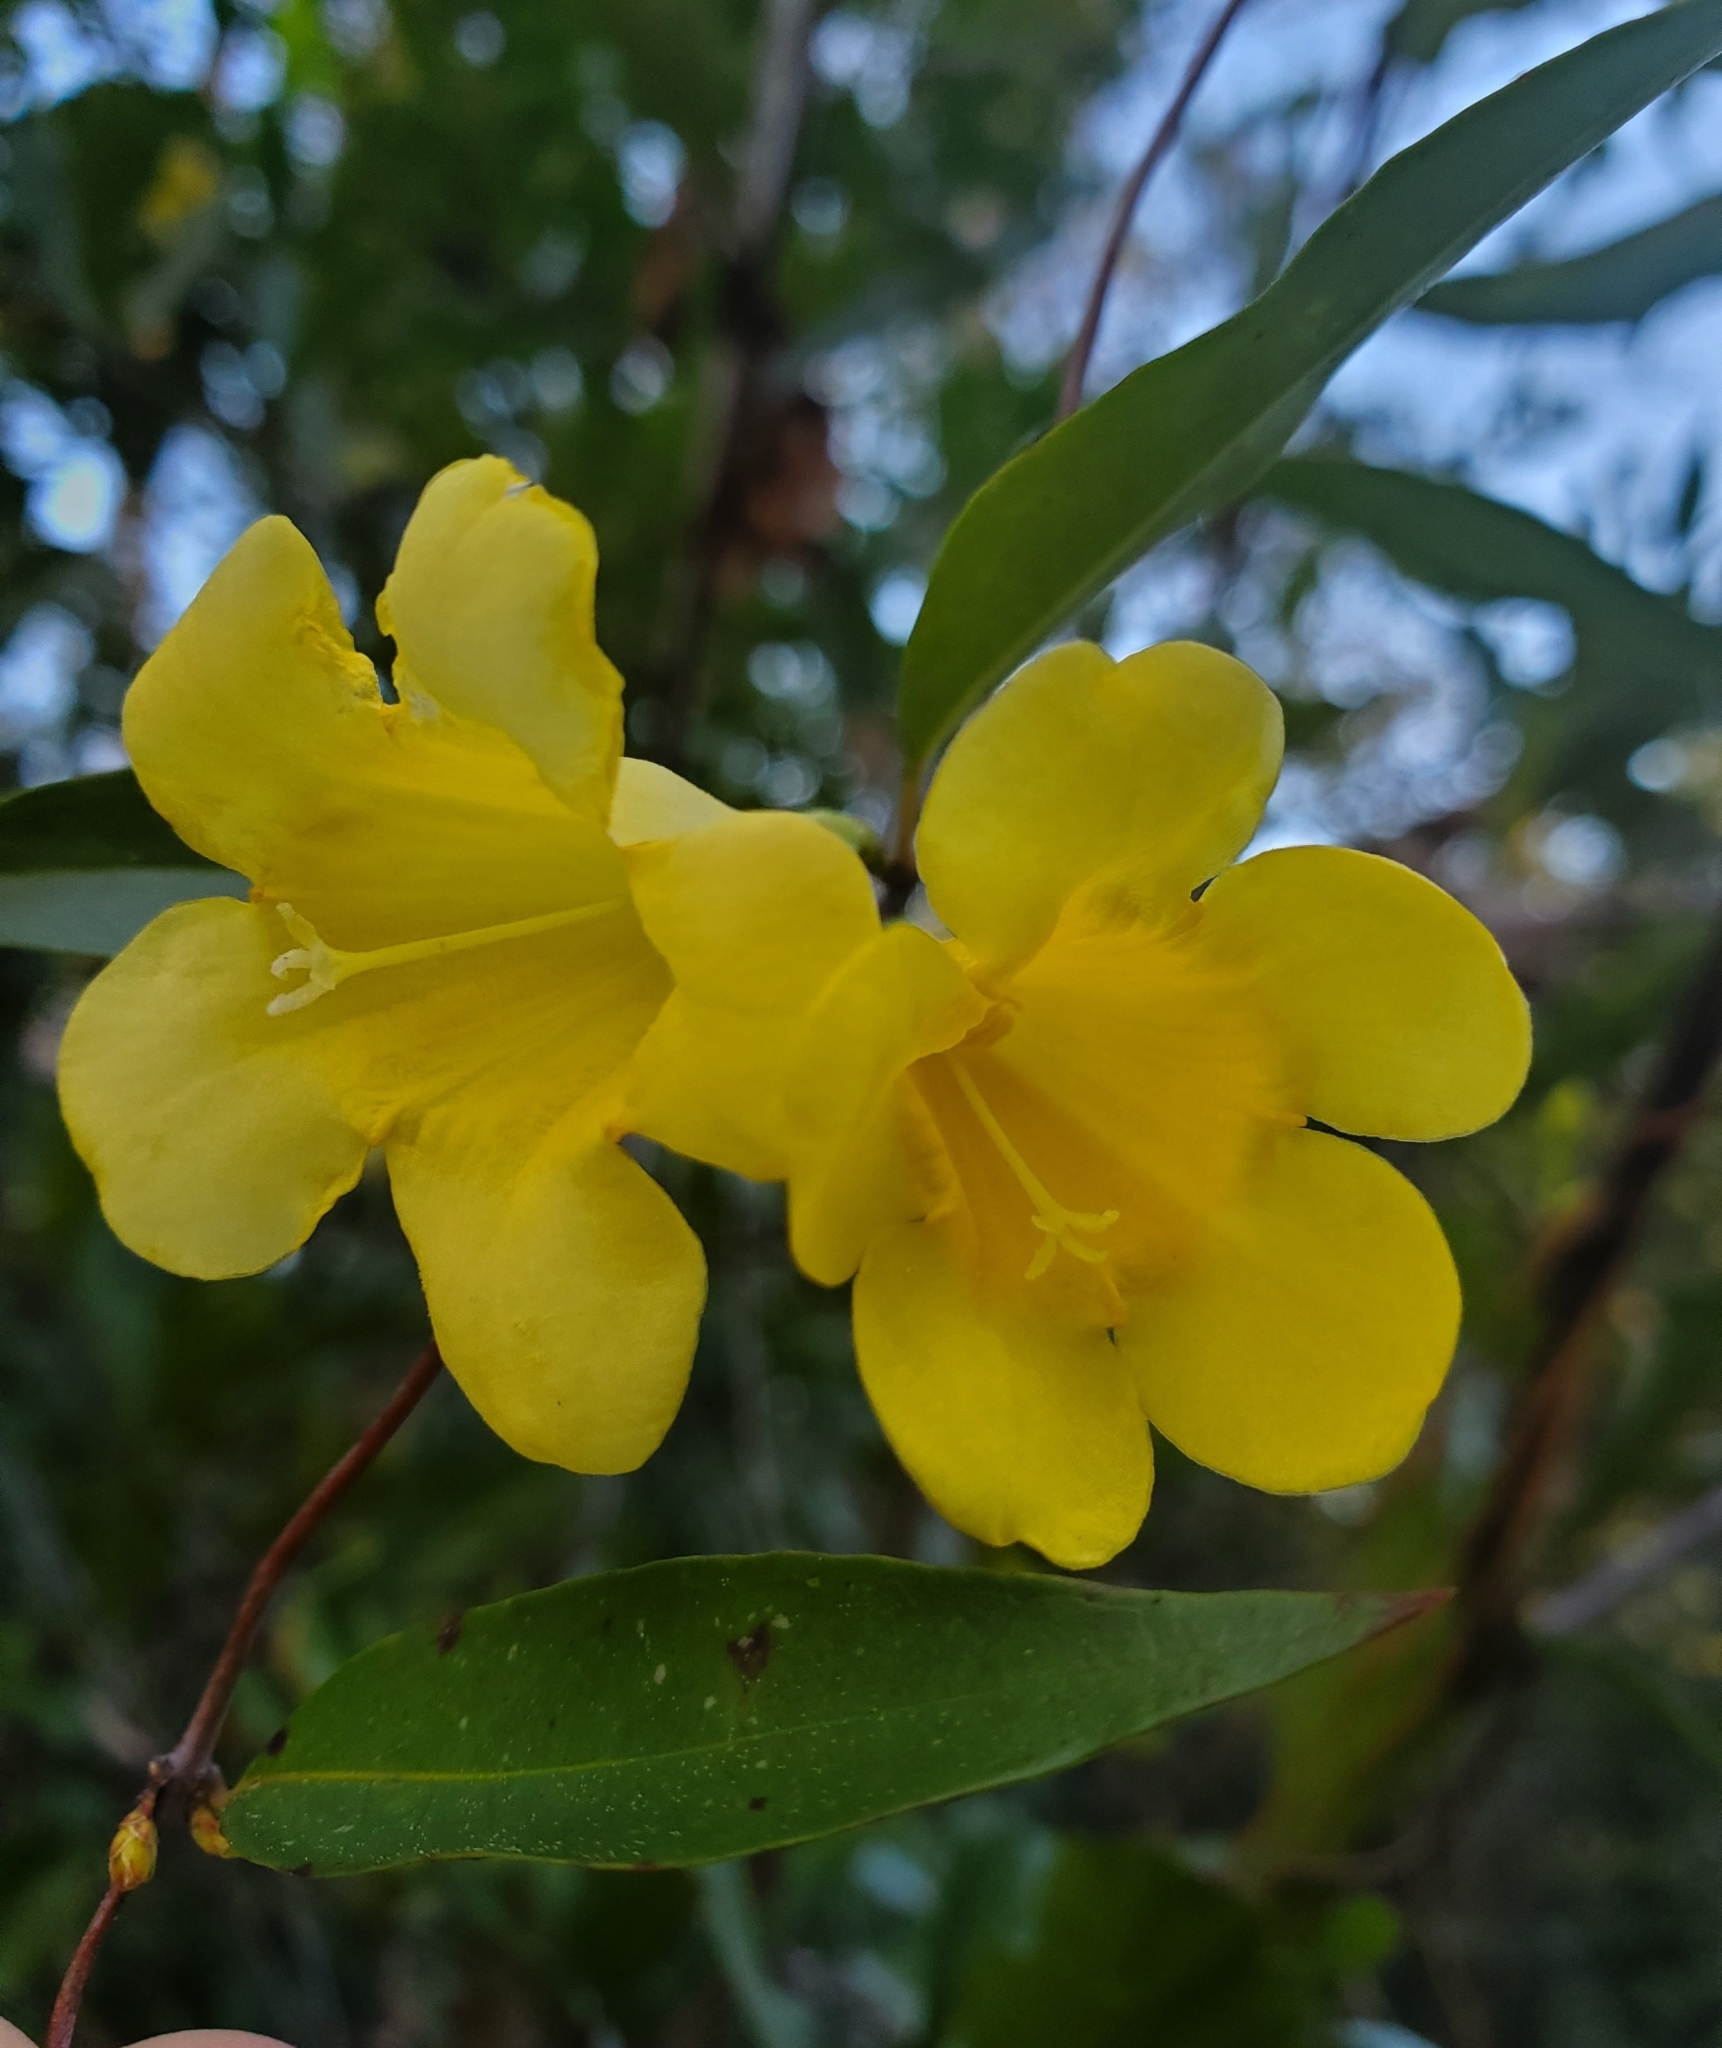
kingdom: Plantae
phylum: Tracheophyta
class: Magnoliopsida
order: Gentianales
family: Gelsemiaceae
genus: Gelsemium
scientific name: Gelsemium sempervirens
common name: Carolina-jasmine
